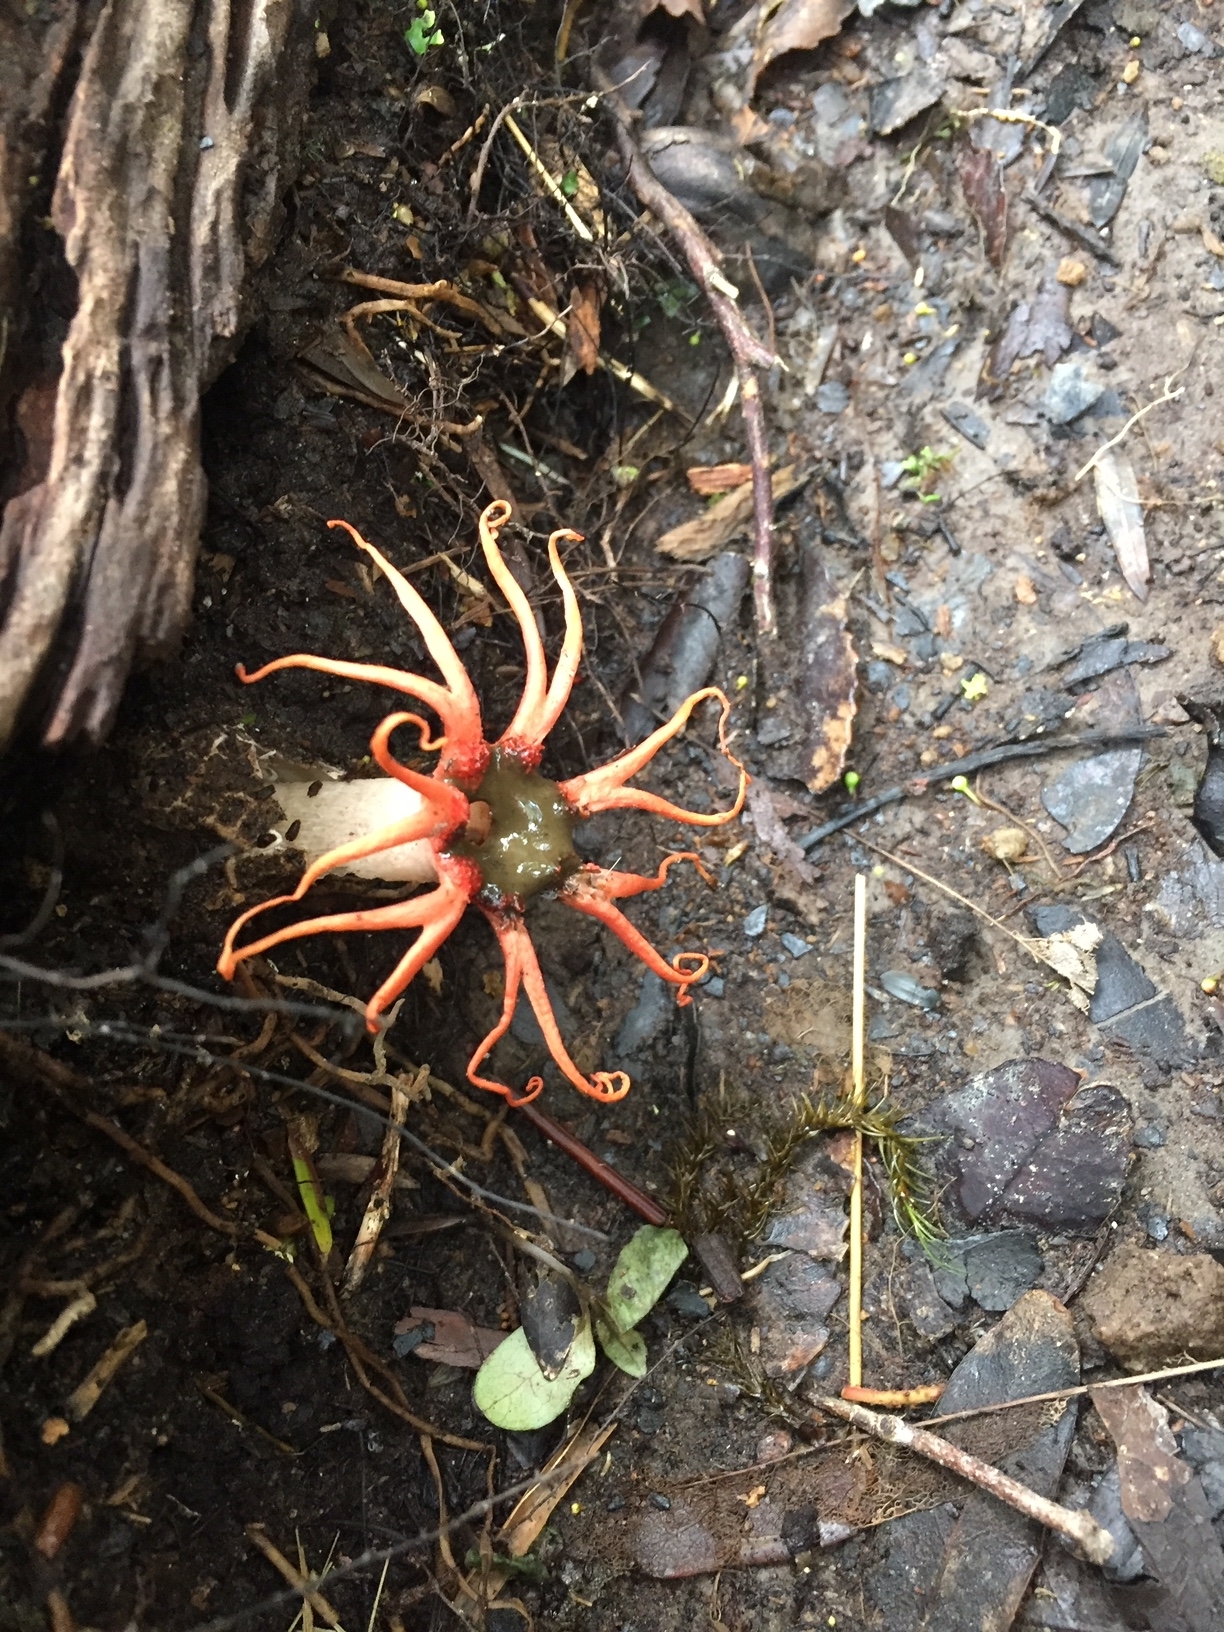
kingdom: Fungi
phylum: Basidiomycota
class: Agaricomycetes
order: Phallales
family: Phallaceae
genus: Aseroe
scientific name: Aseroe rubra
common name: Starfish fungus
